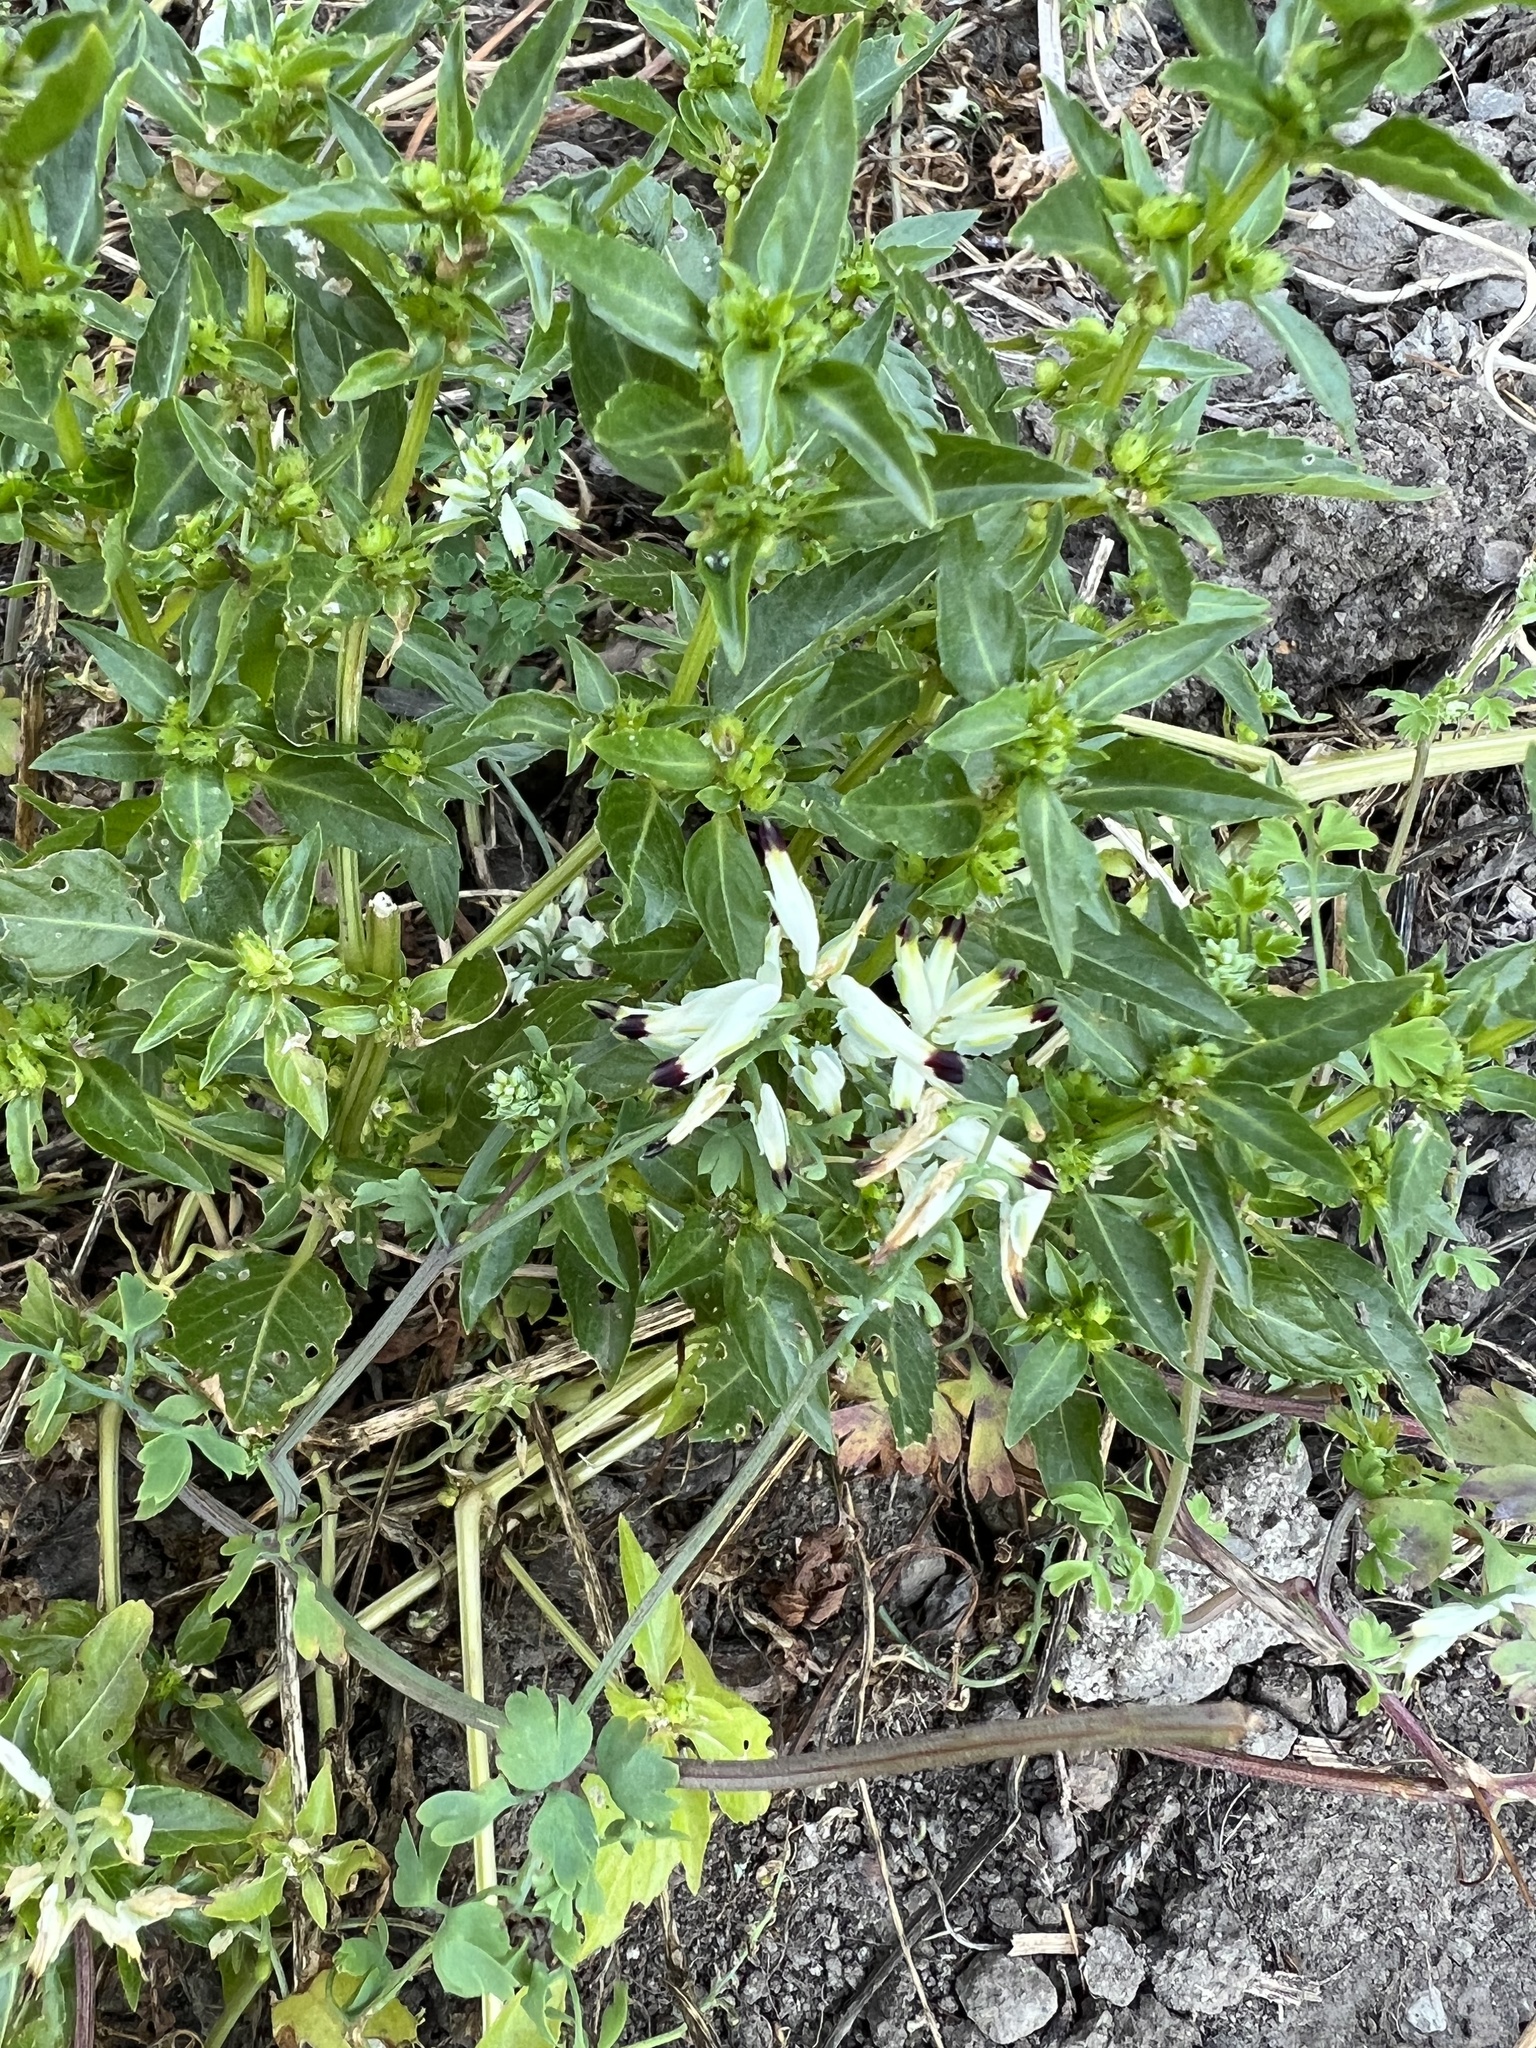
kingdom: Plantae
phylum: Tracheophyta
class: Magnoliopsida
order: Ranunculales
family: Papaveraceae
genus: Fumaria
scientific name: Fumaria capreolata
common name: White ramping-fumitory
